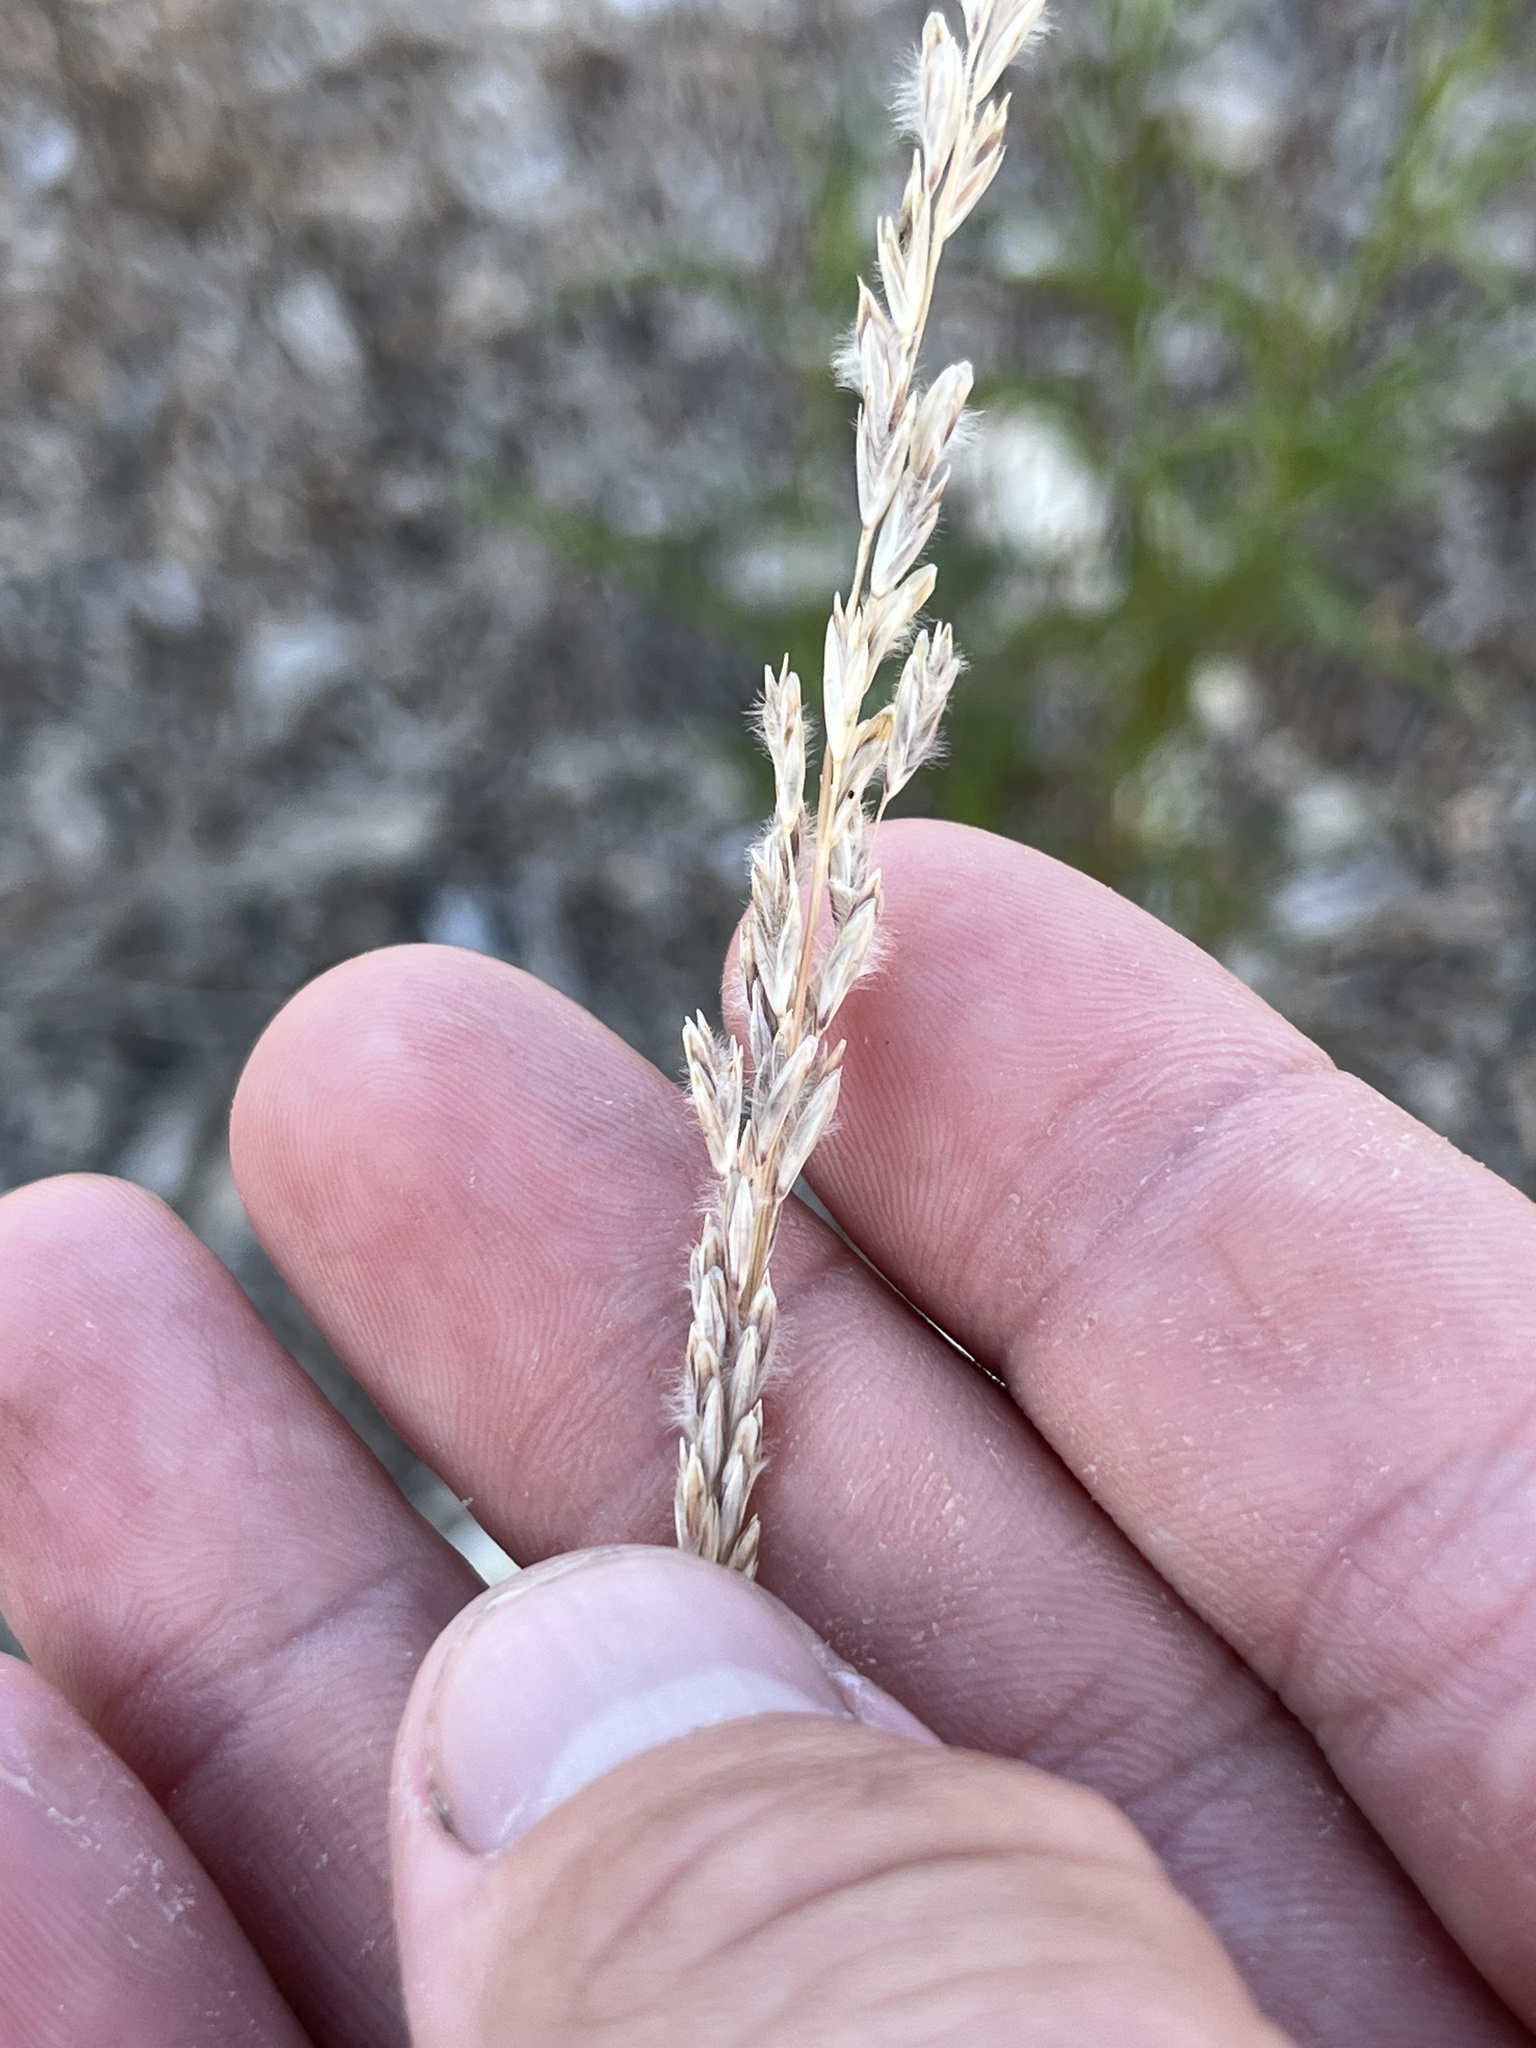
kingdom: Plantae
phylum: Tracheophyta
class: Liliopsida
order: Poales
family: Poaceae
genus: Tridentopsis
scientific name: Tridentopsis mutica
